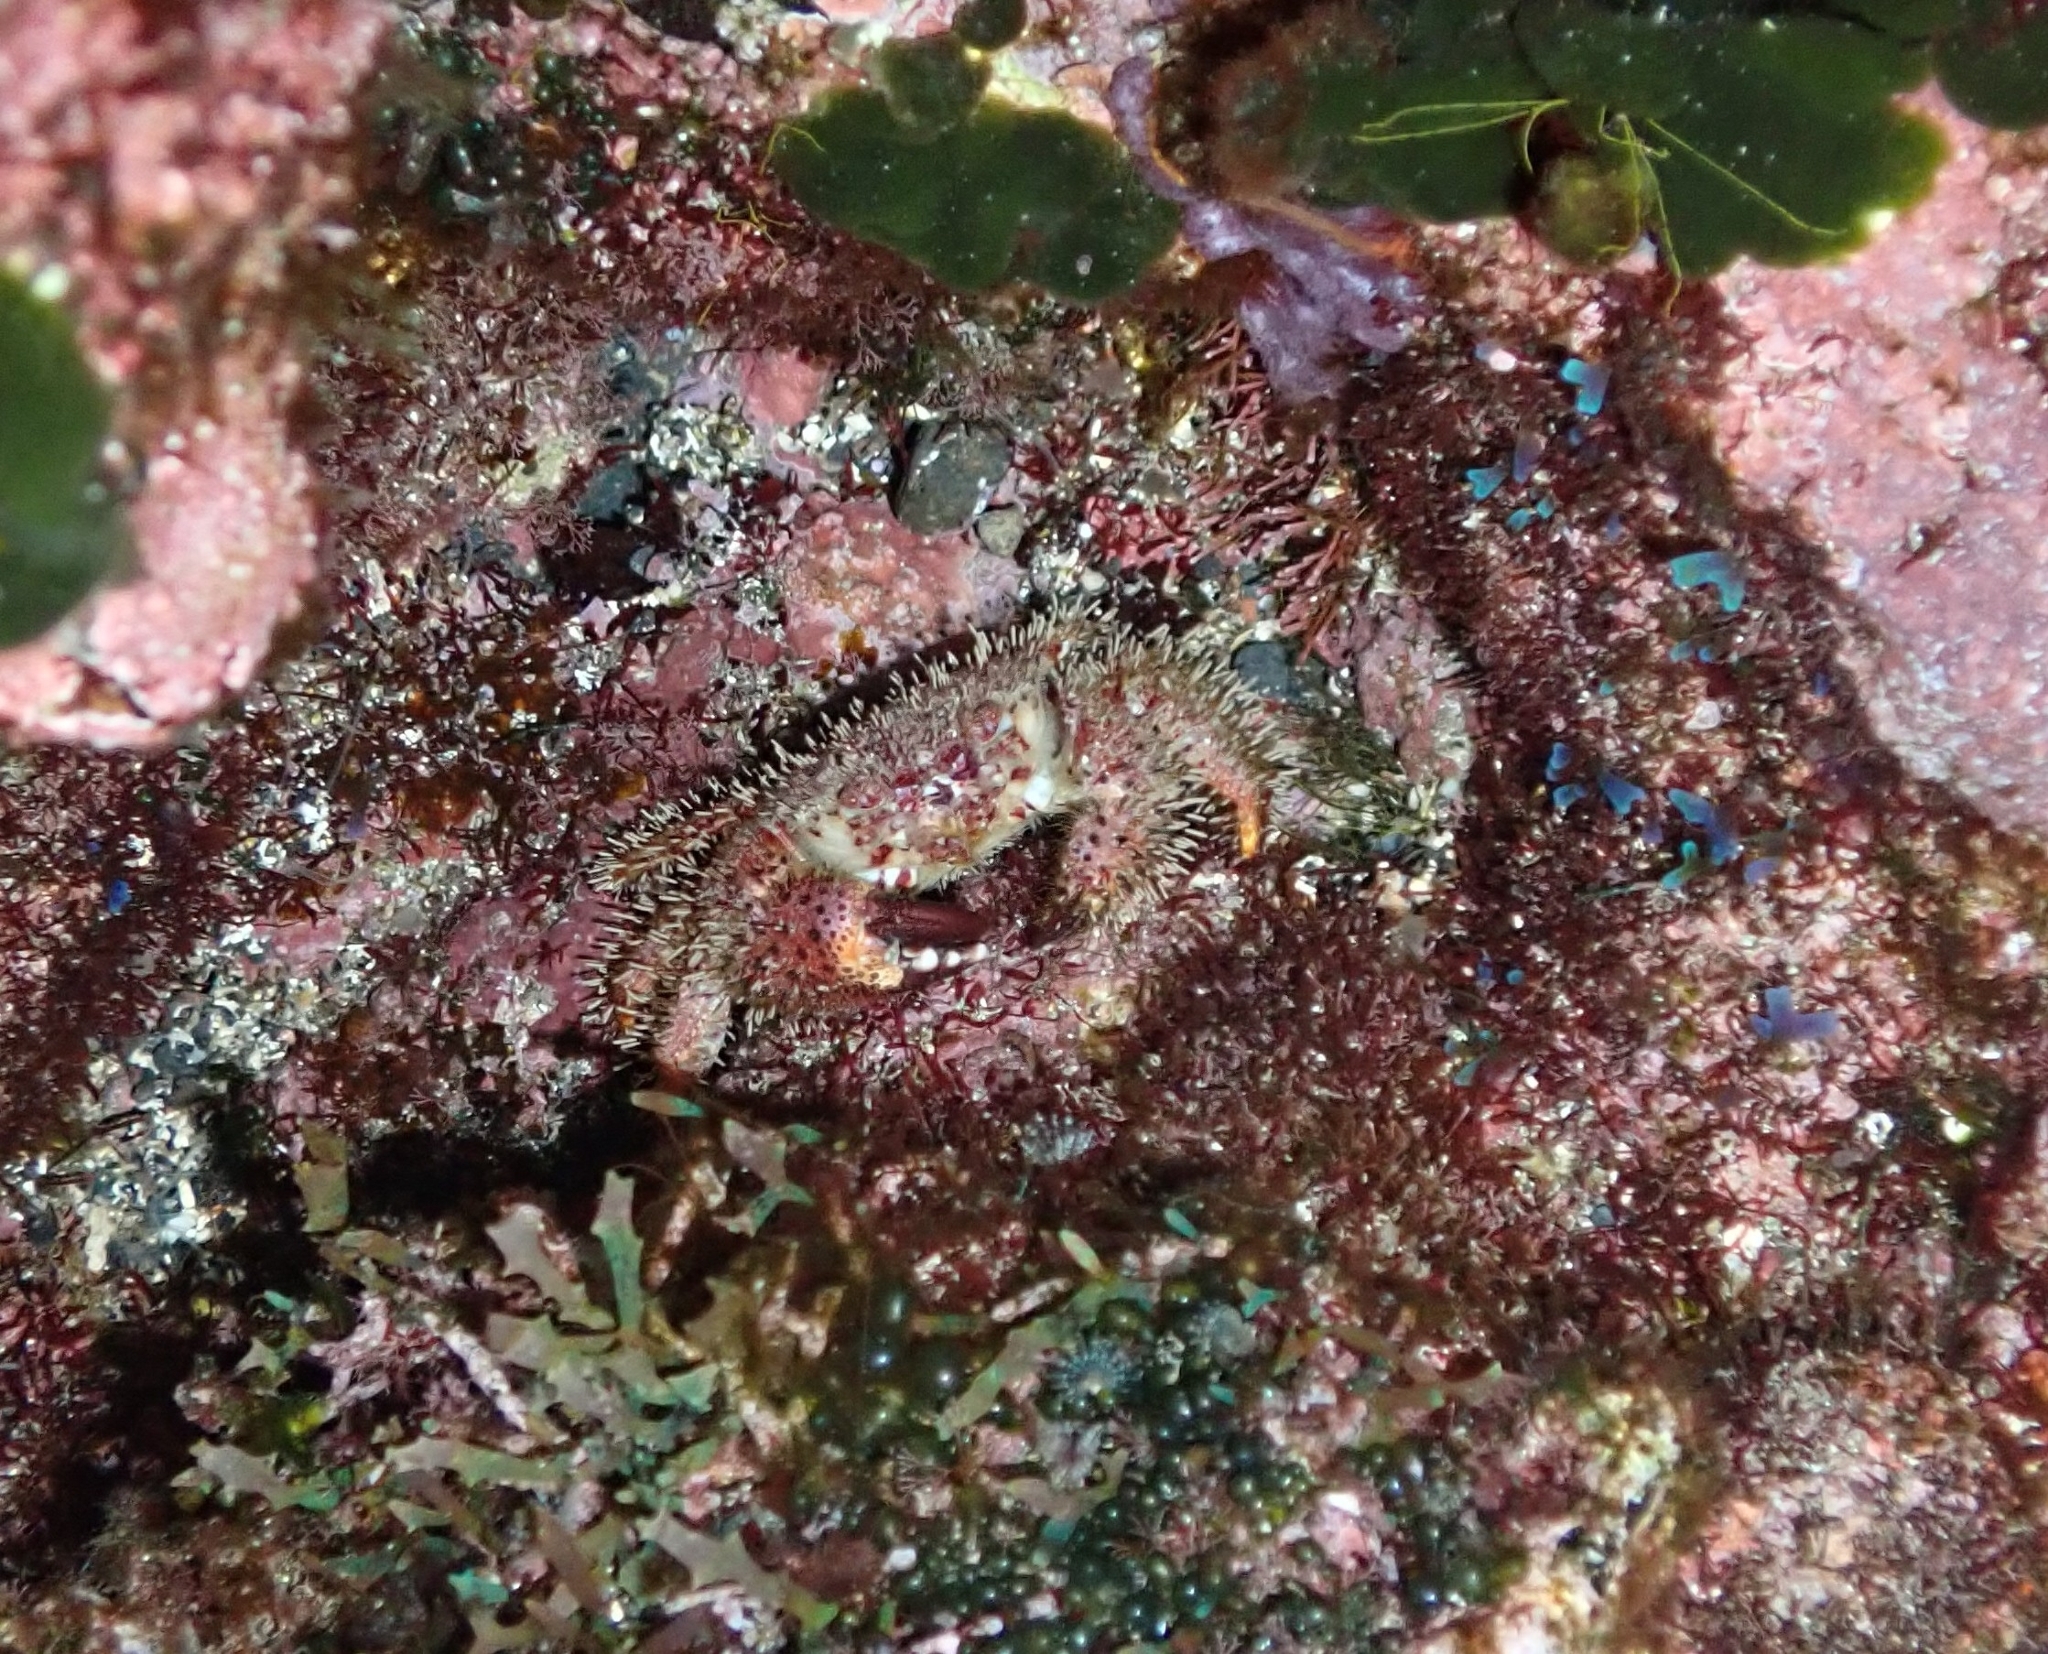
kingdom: Animalia
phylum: Arthropoda
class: Malacostraca
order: Decapoda
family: Pilumnidae
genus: Pilumnus
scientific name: Pilumnus hirtellus
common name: Hairy crab
